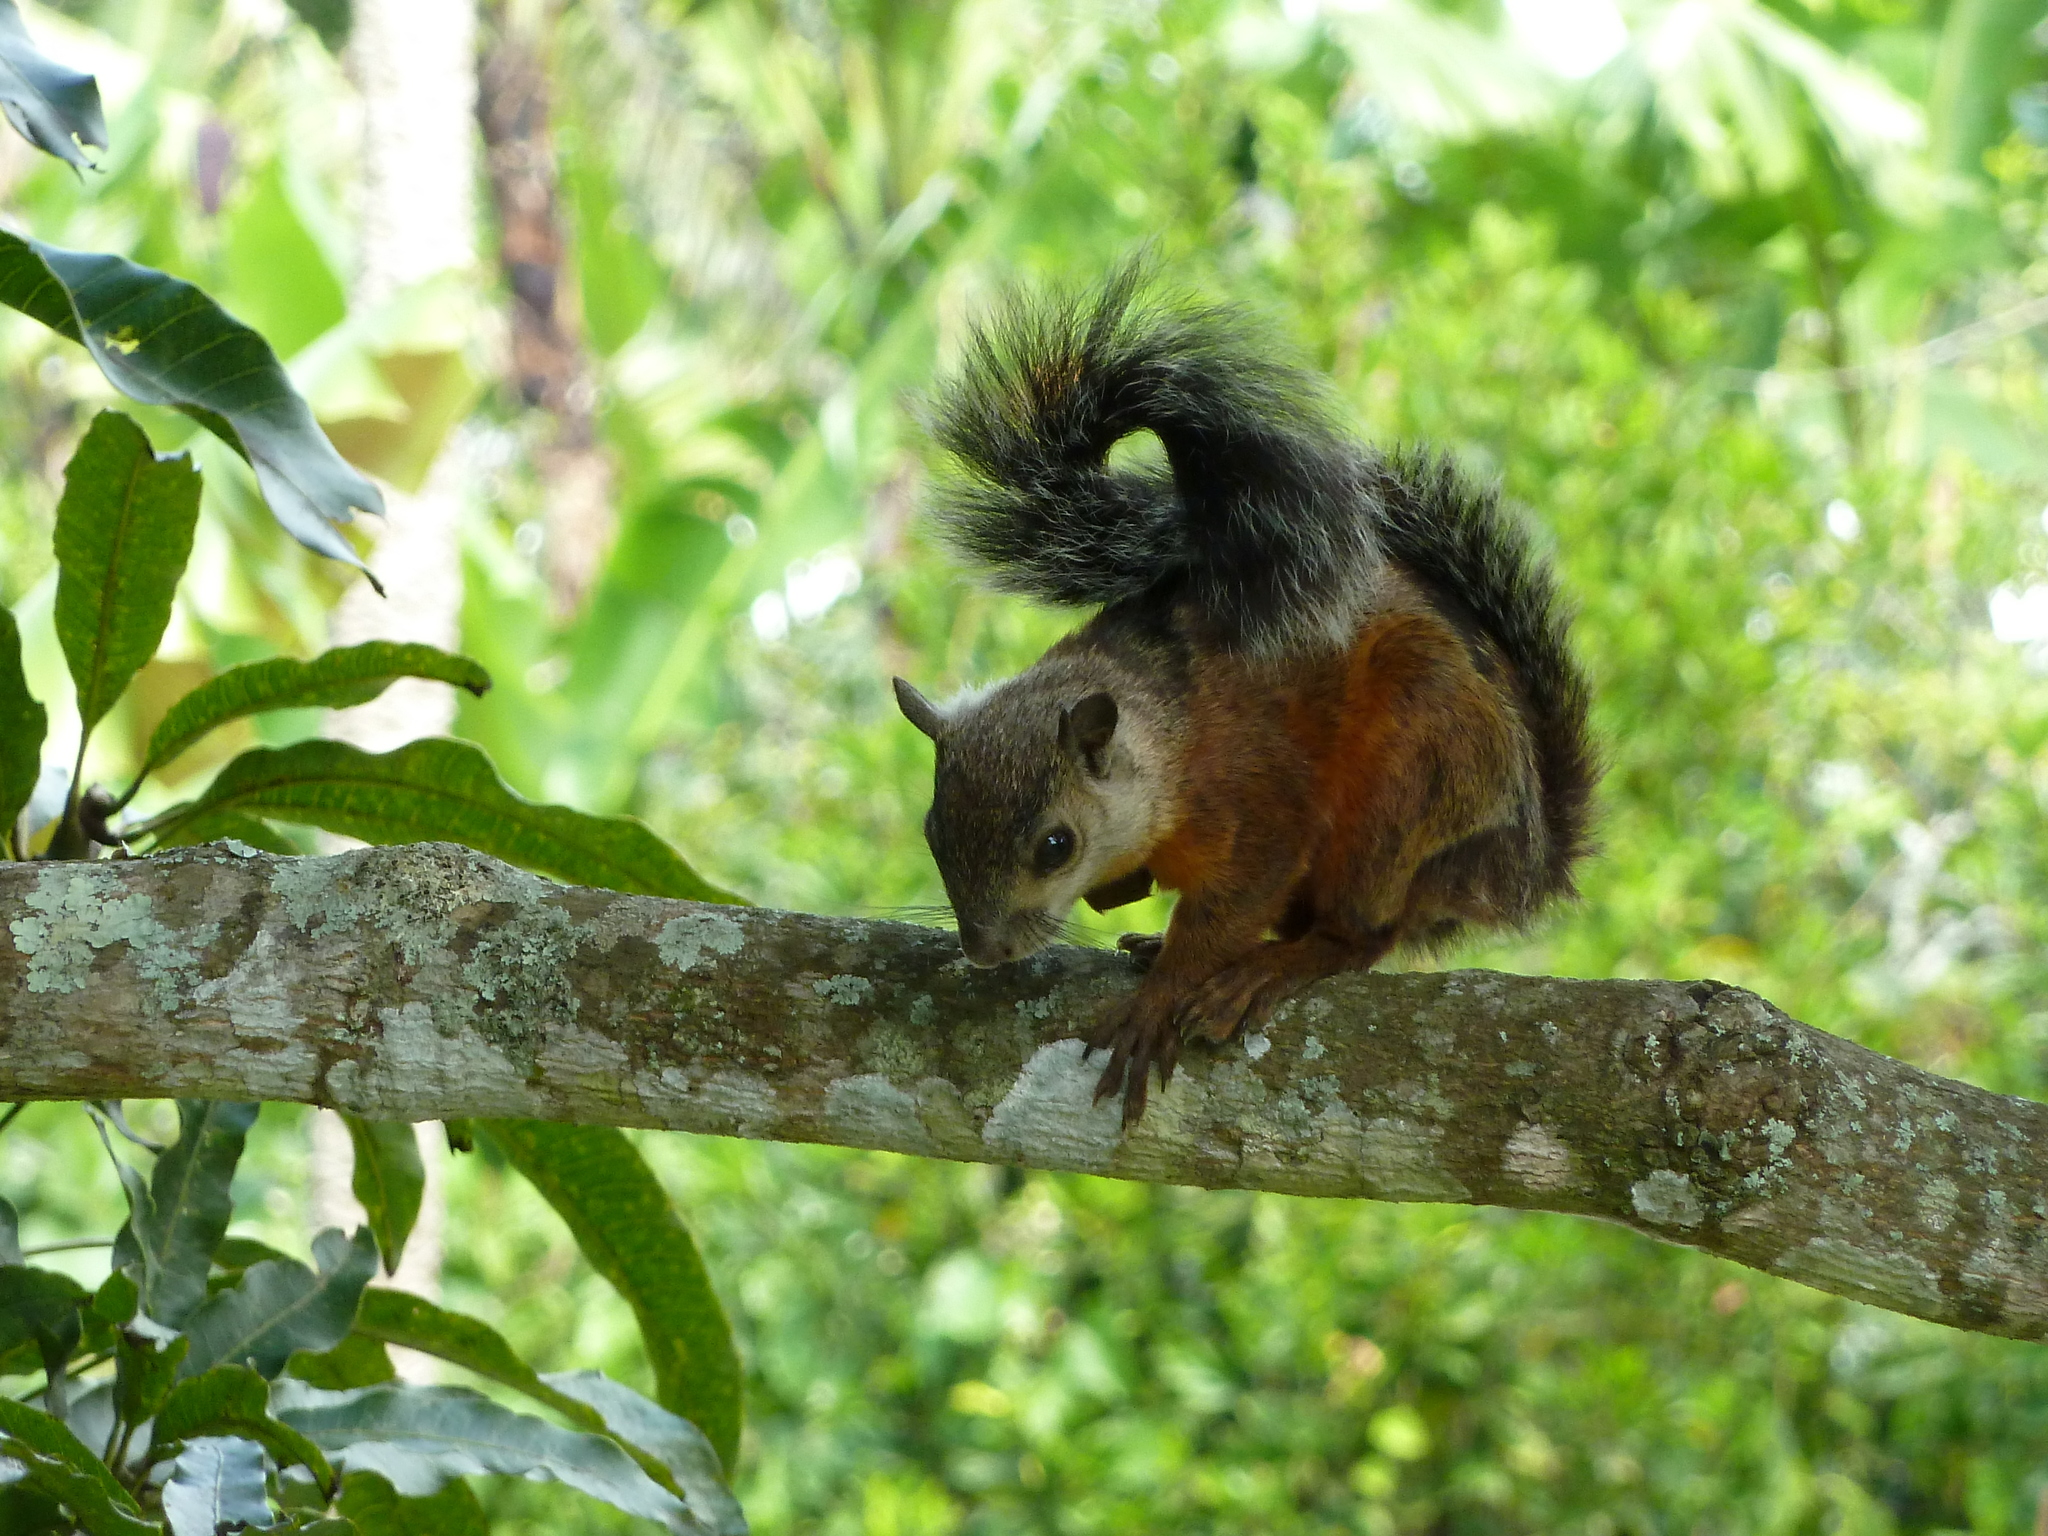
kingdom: Animalia
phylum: Chordata
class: Mammalia
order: Rodentia
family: Sciuridae
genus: Sciurus
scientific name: Sciurus variegatoides
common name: Variegated squirrel
